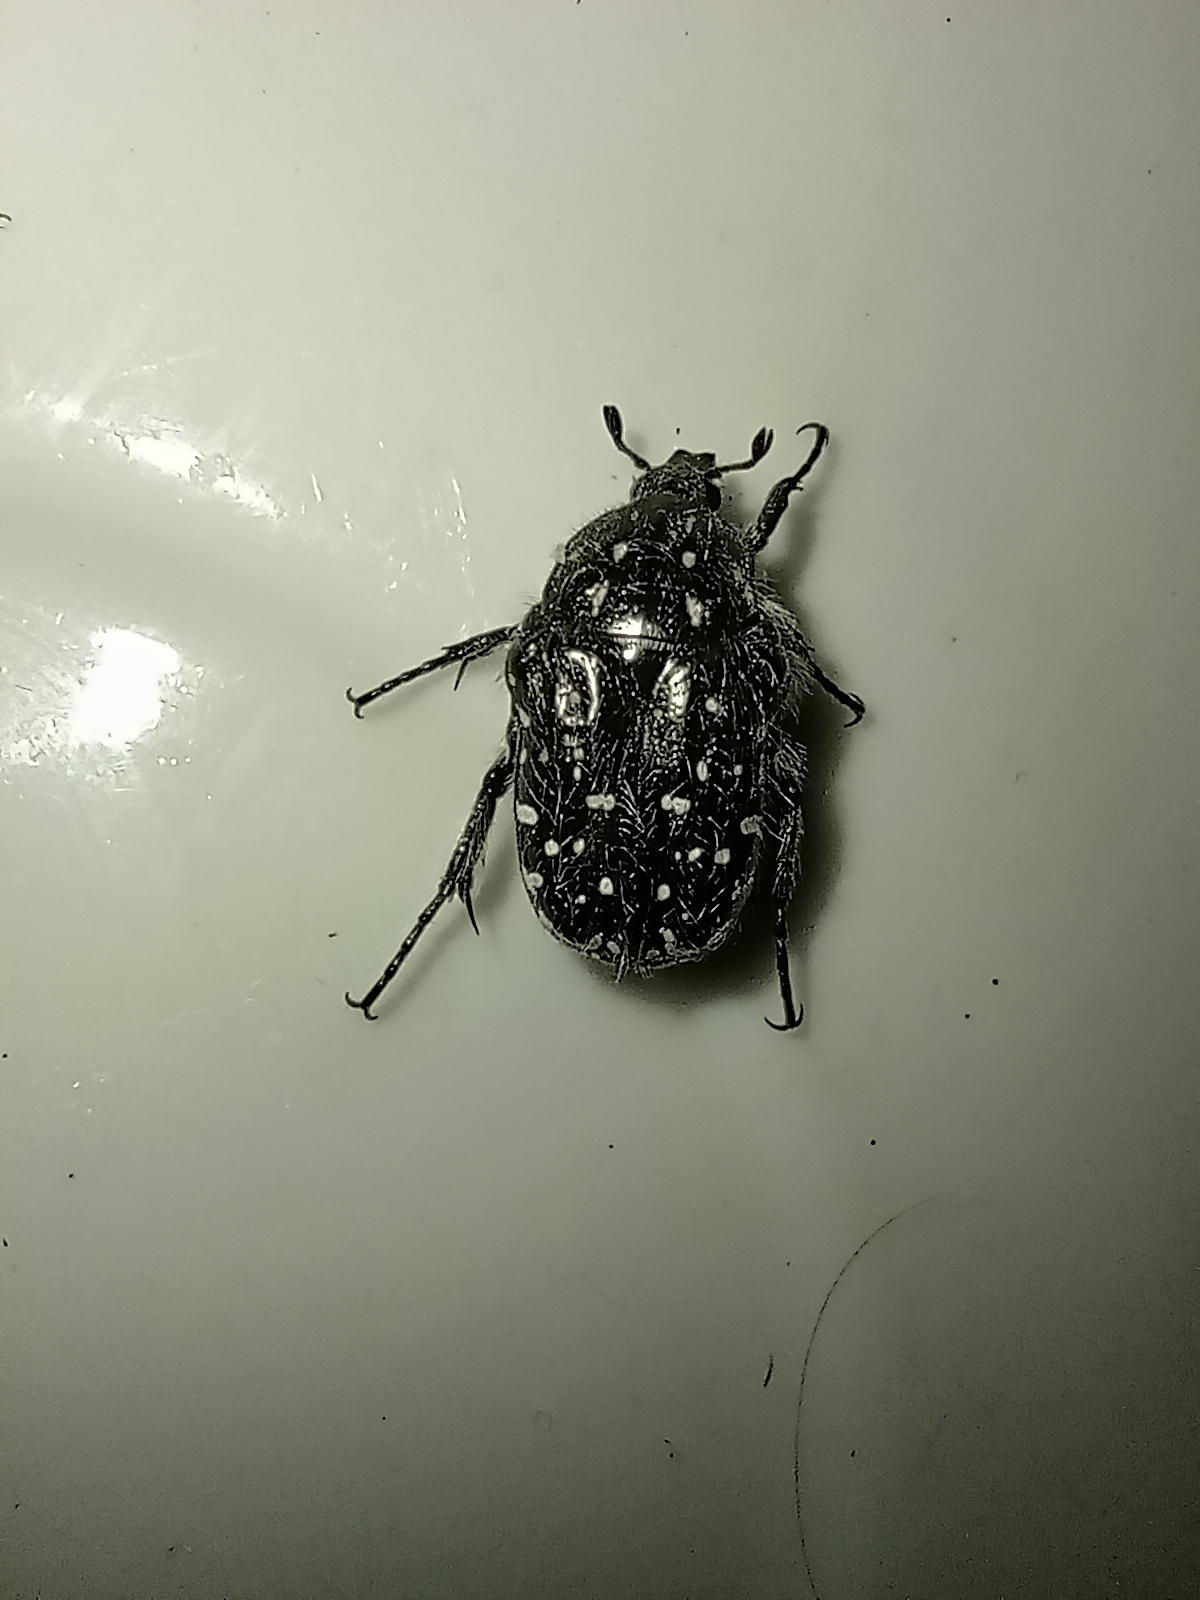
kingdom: Animalia
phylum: Arthropoda
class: Insecta
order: Coleoptera
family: Scarabaeidae
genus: Oxythyrea
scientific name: Oxythyrea funesta
